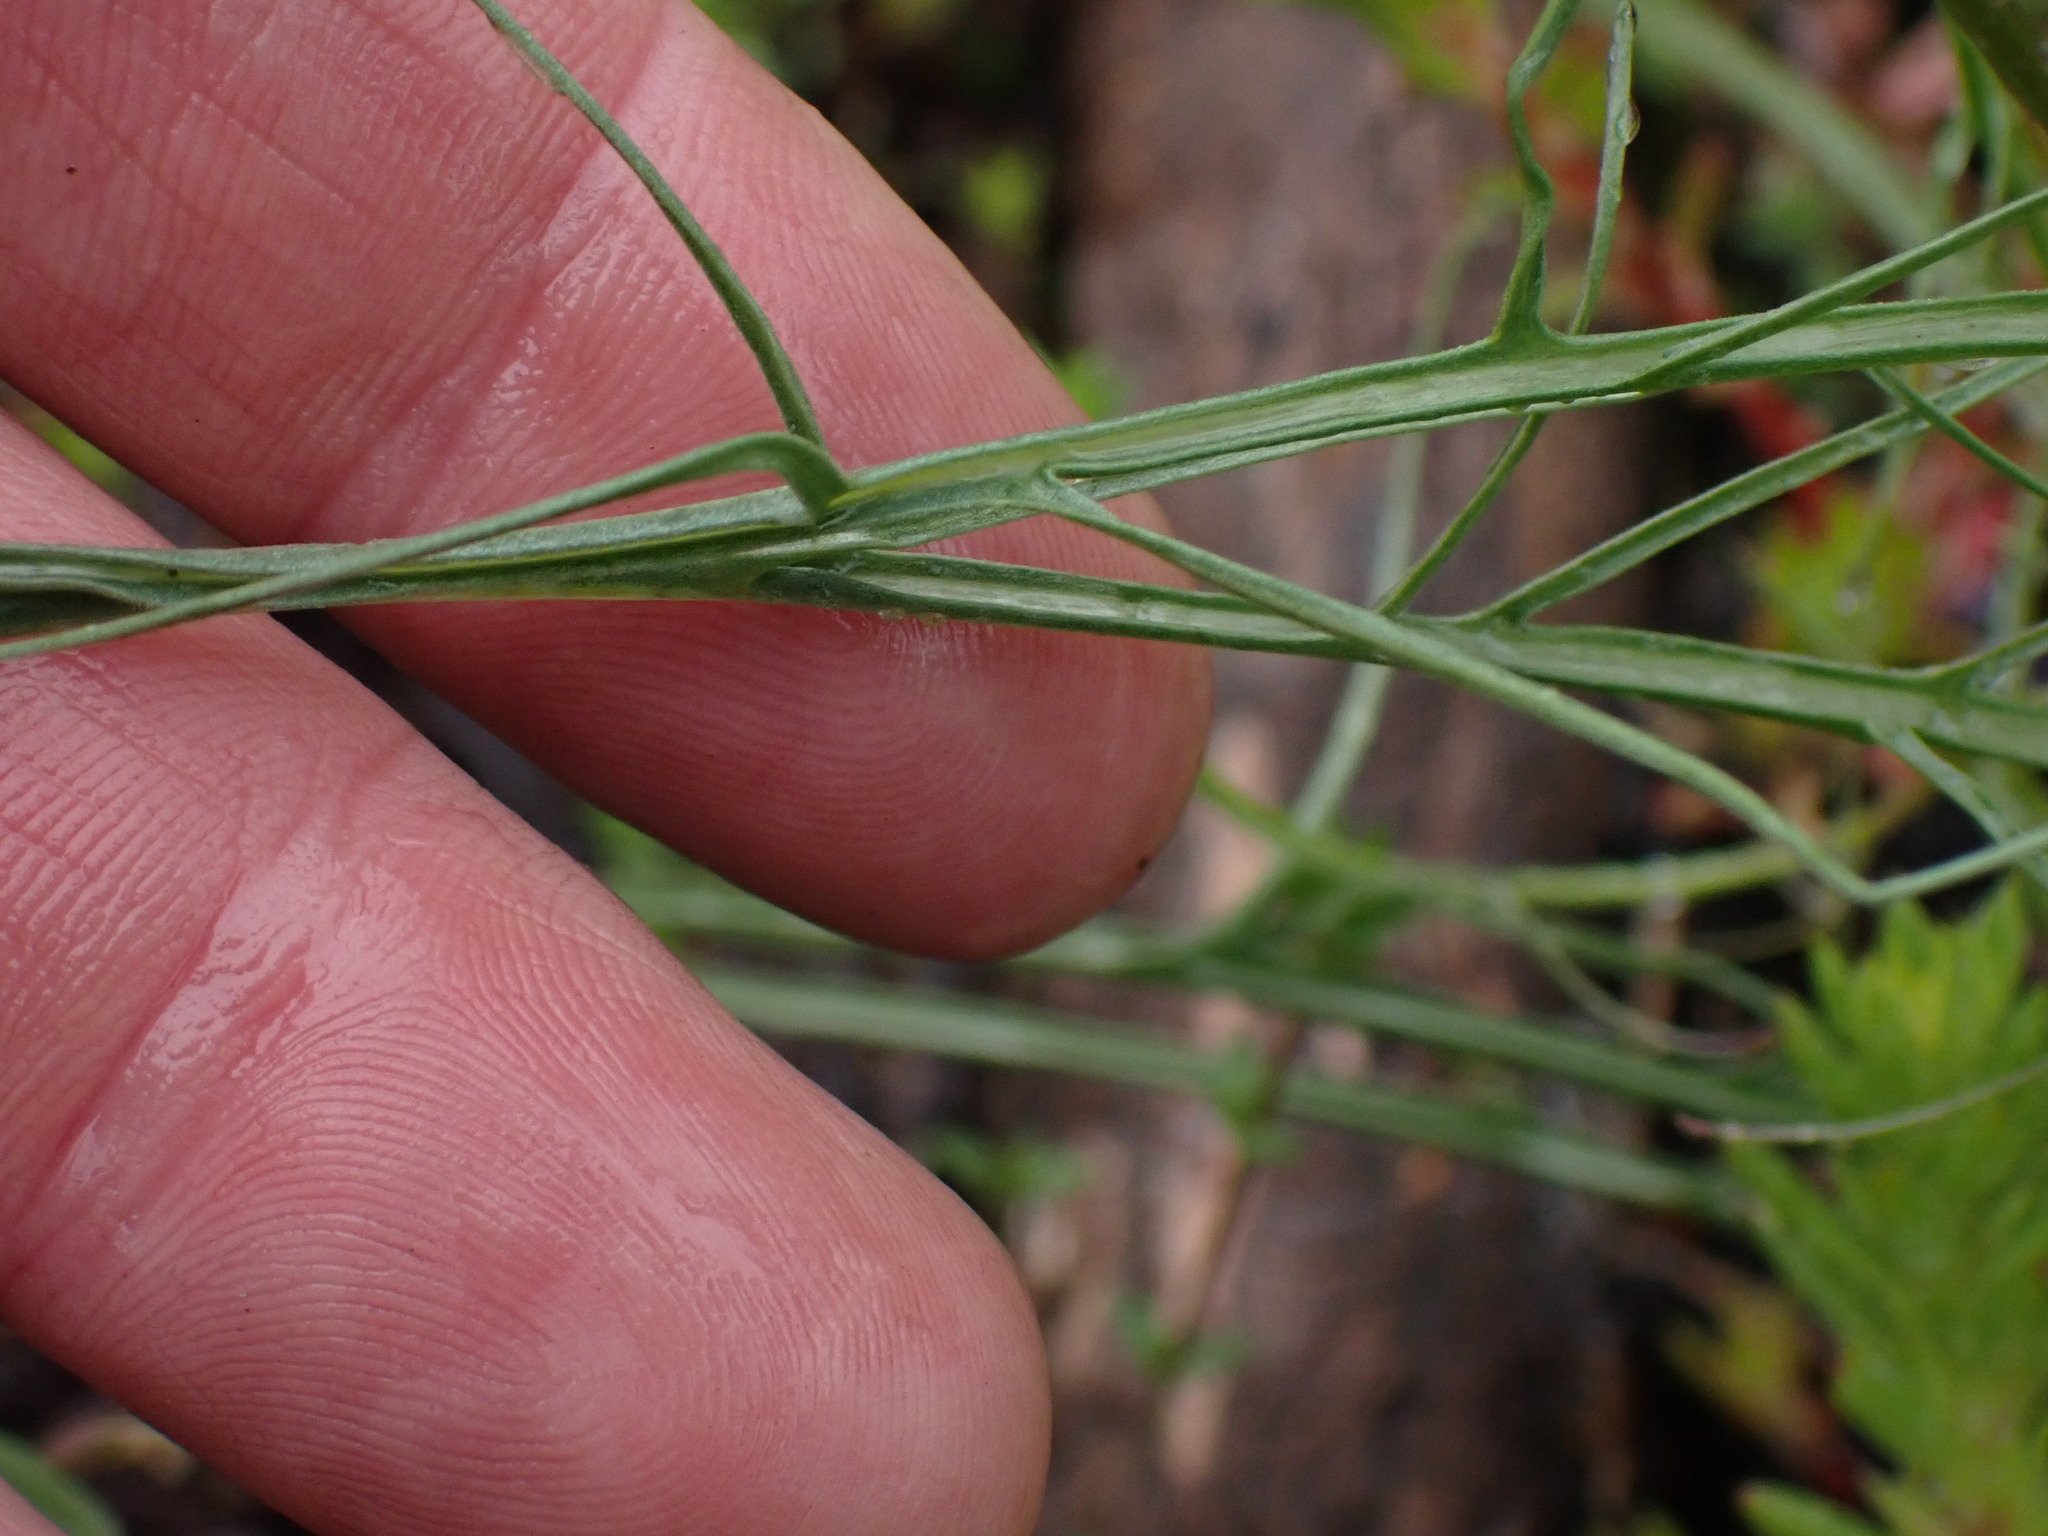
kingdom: Plantae
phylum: Tracheophyta
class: Magnoliopsida
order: Asterales
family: Asteraceae
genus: Microseris
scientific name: Microseris nutans
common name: Nodding microseris
